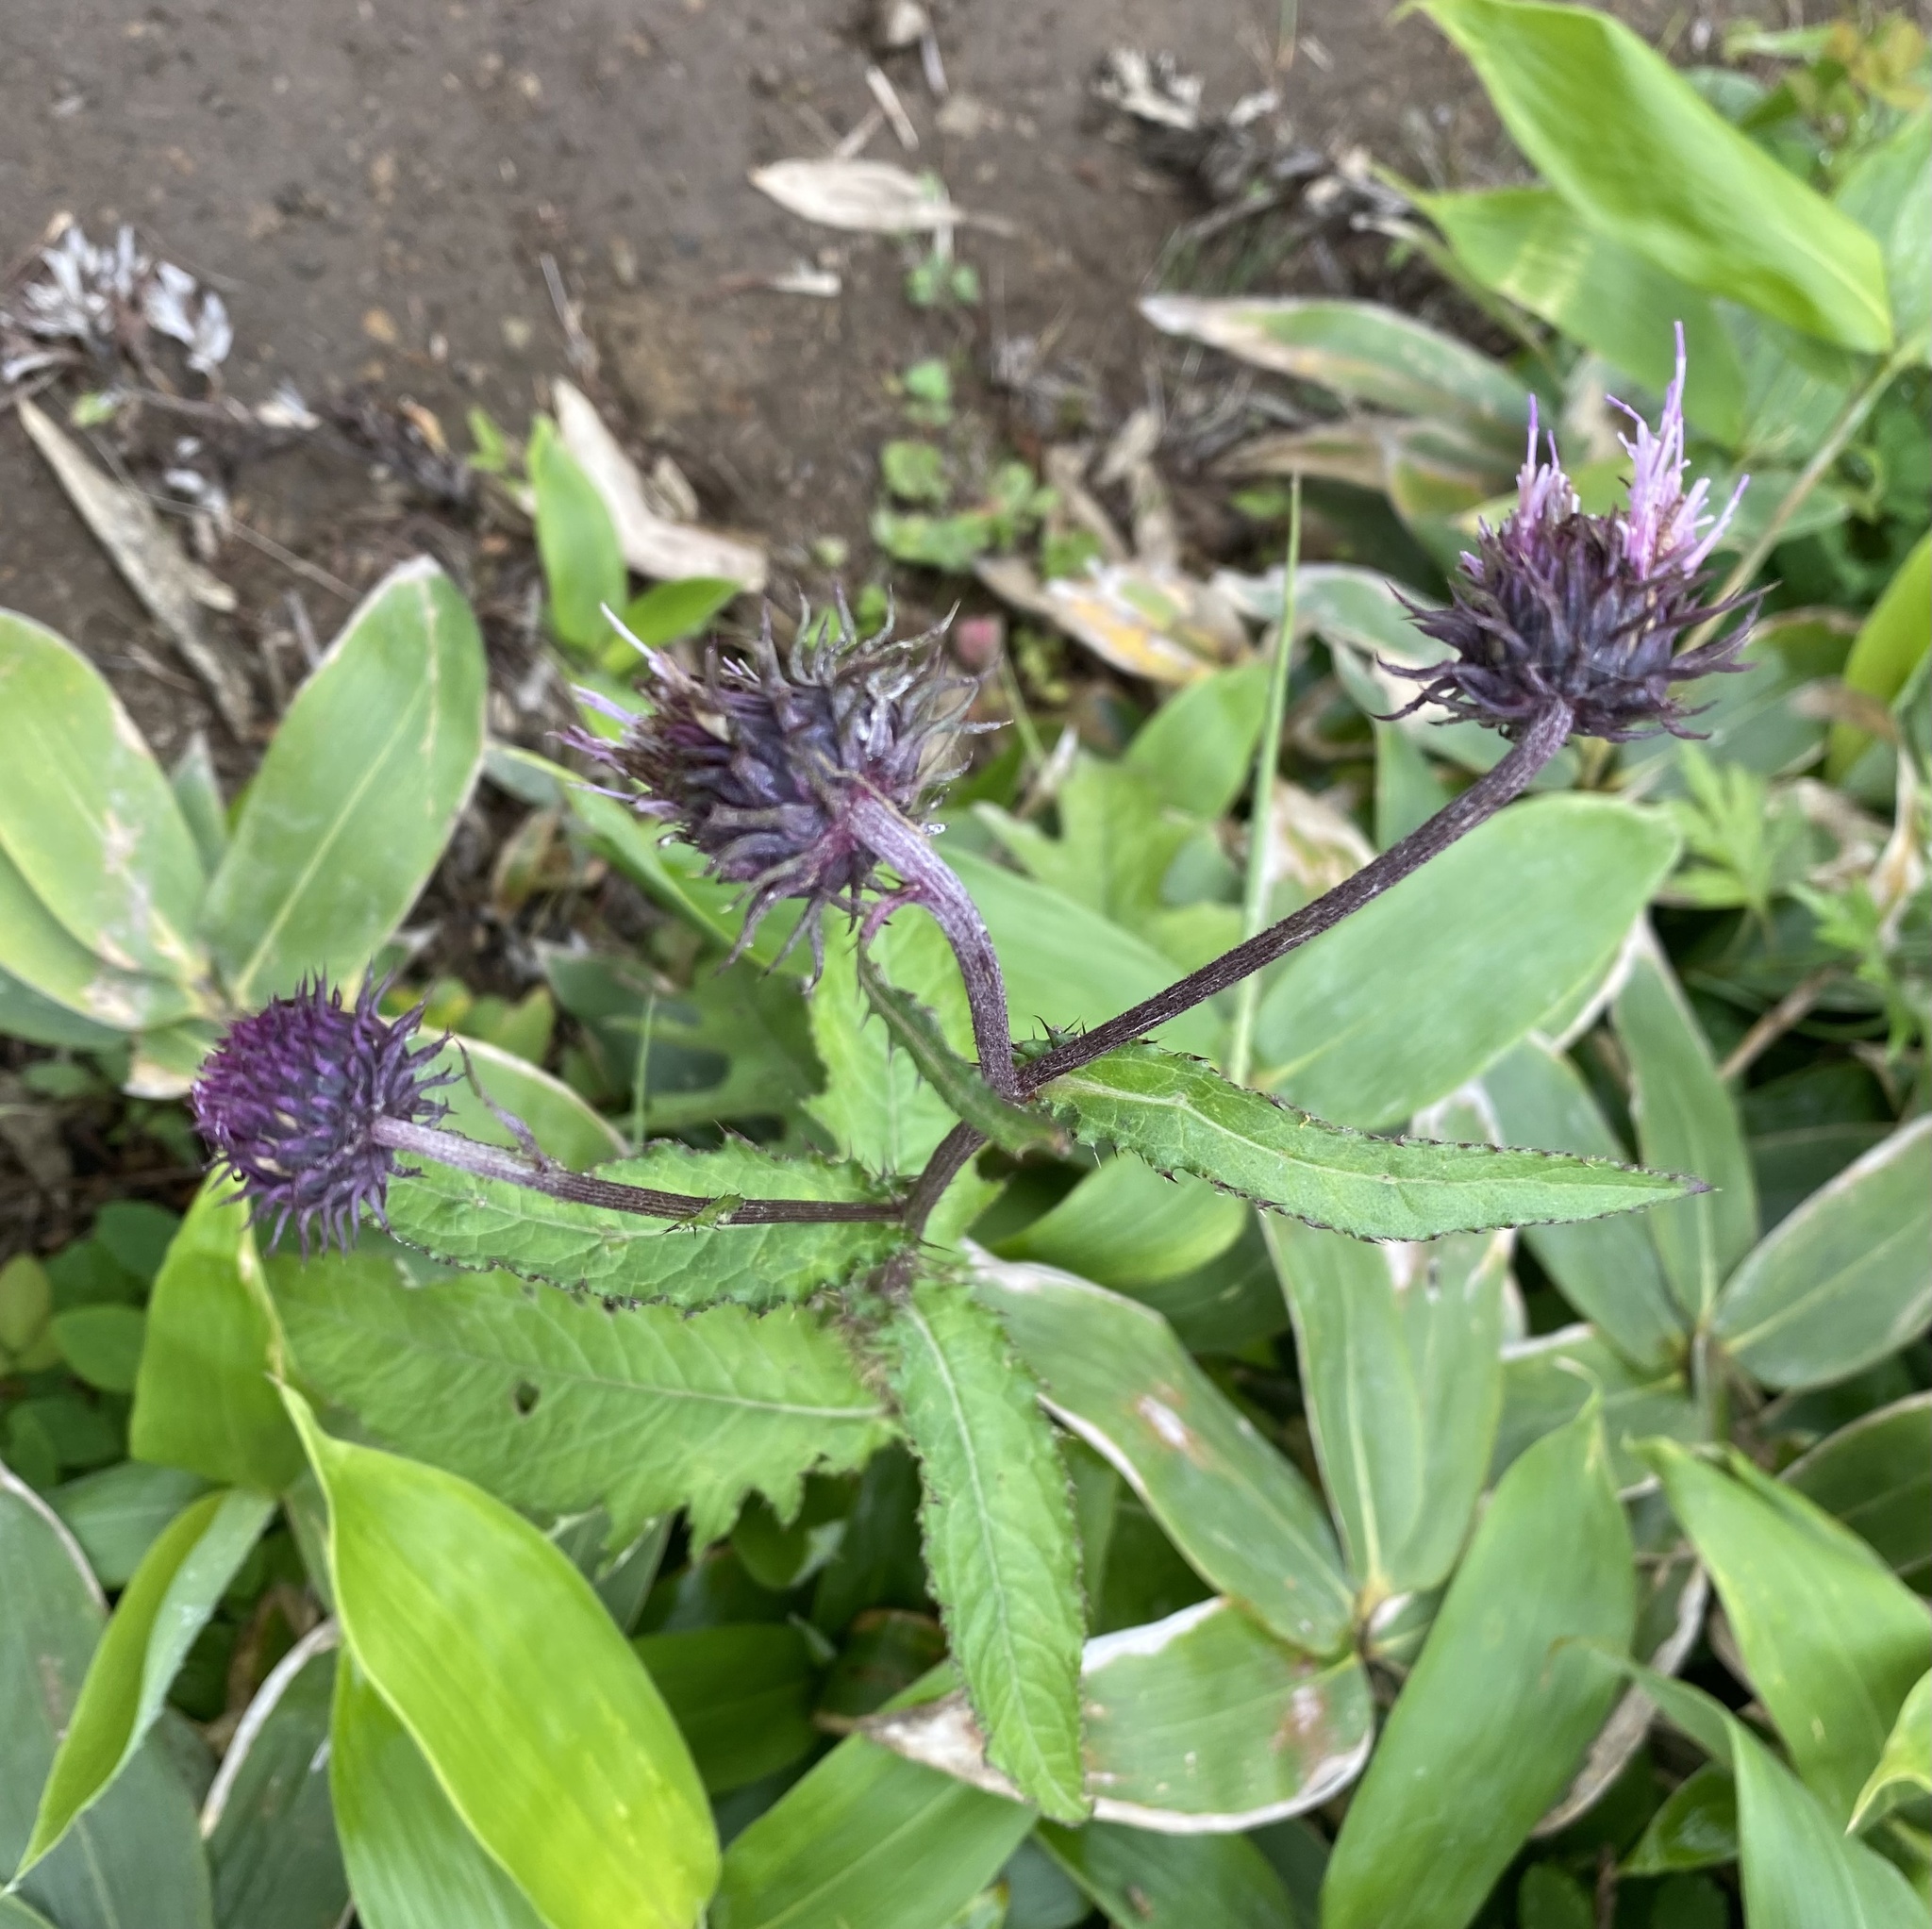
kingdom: Plantae
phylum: Tracheophyta
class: Magnoliopsida
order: Asterales
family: Asteraceae
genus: Cirsium
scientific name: Cirsium kamtschaticum
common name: Kamchatka thistle
